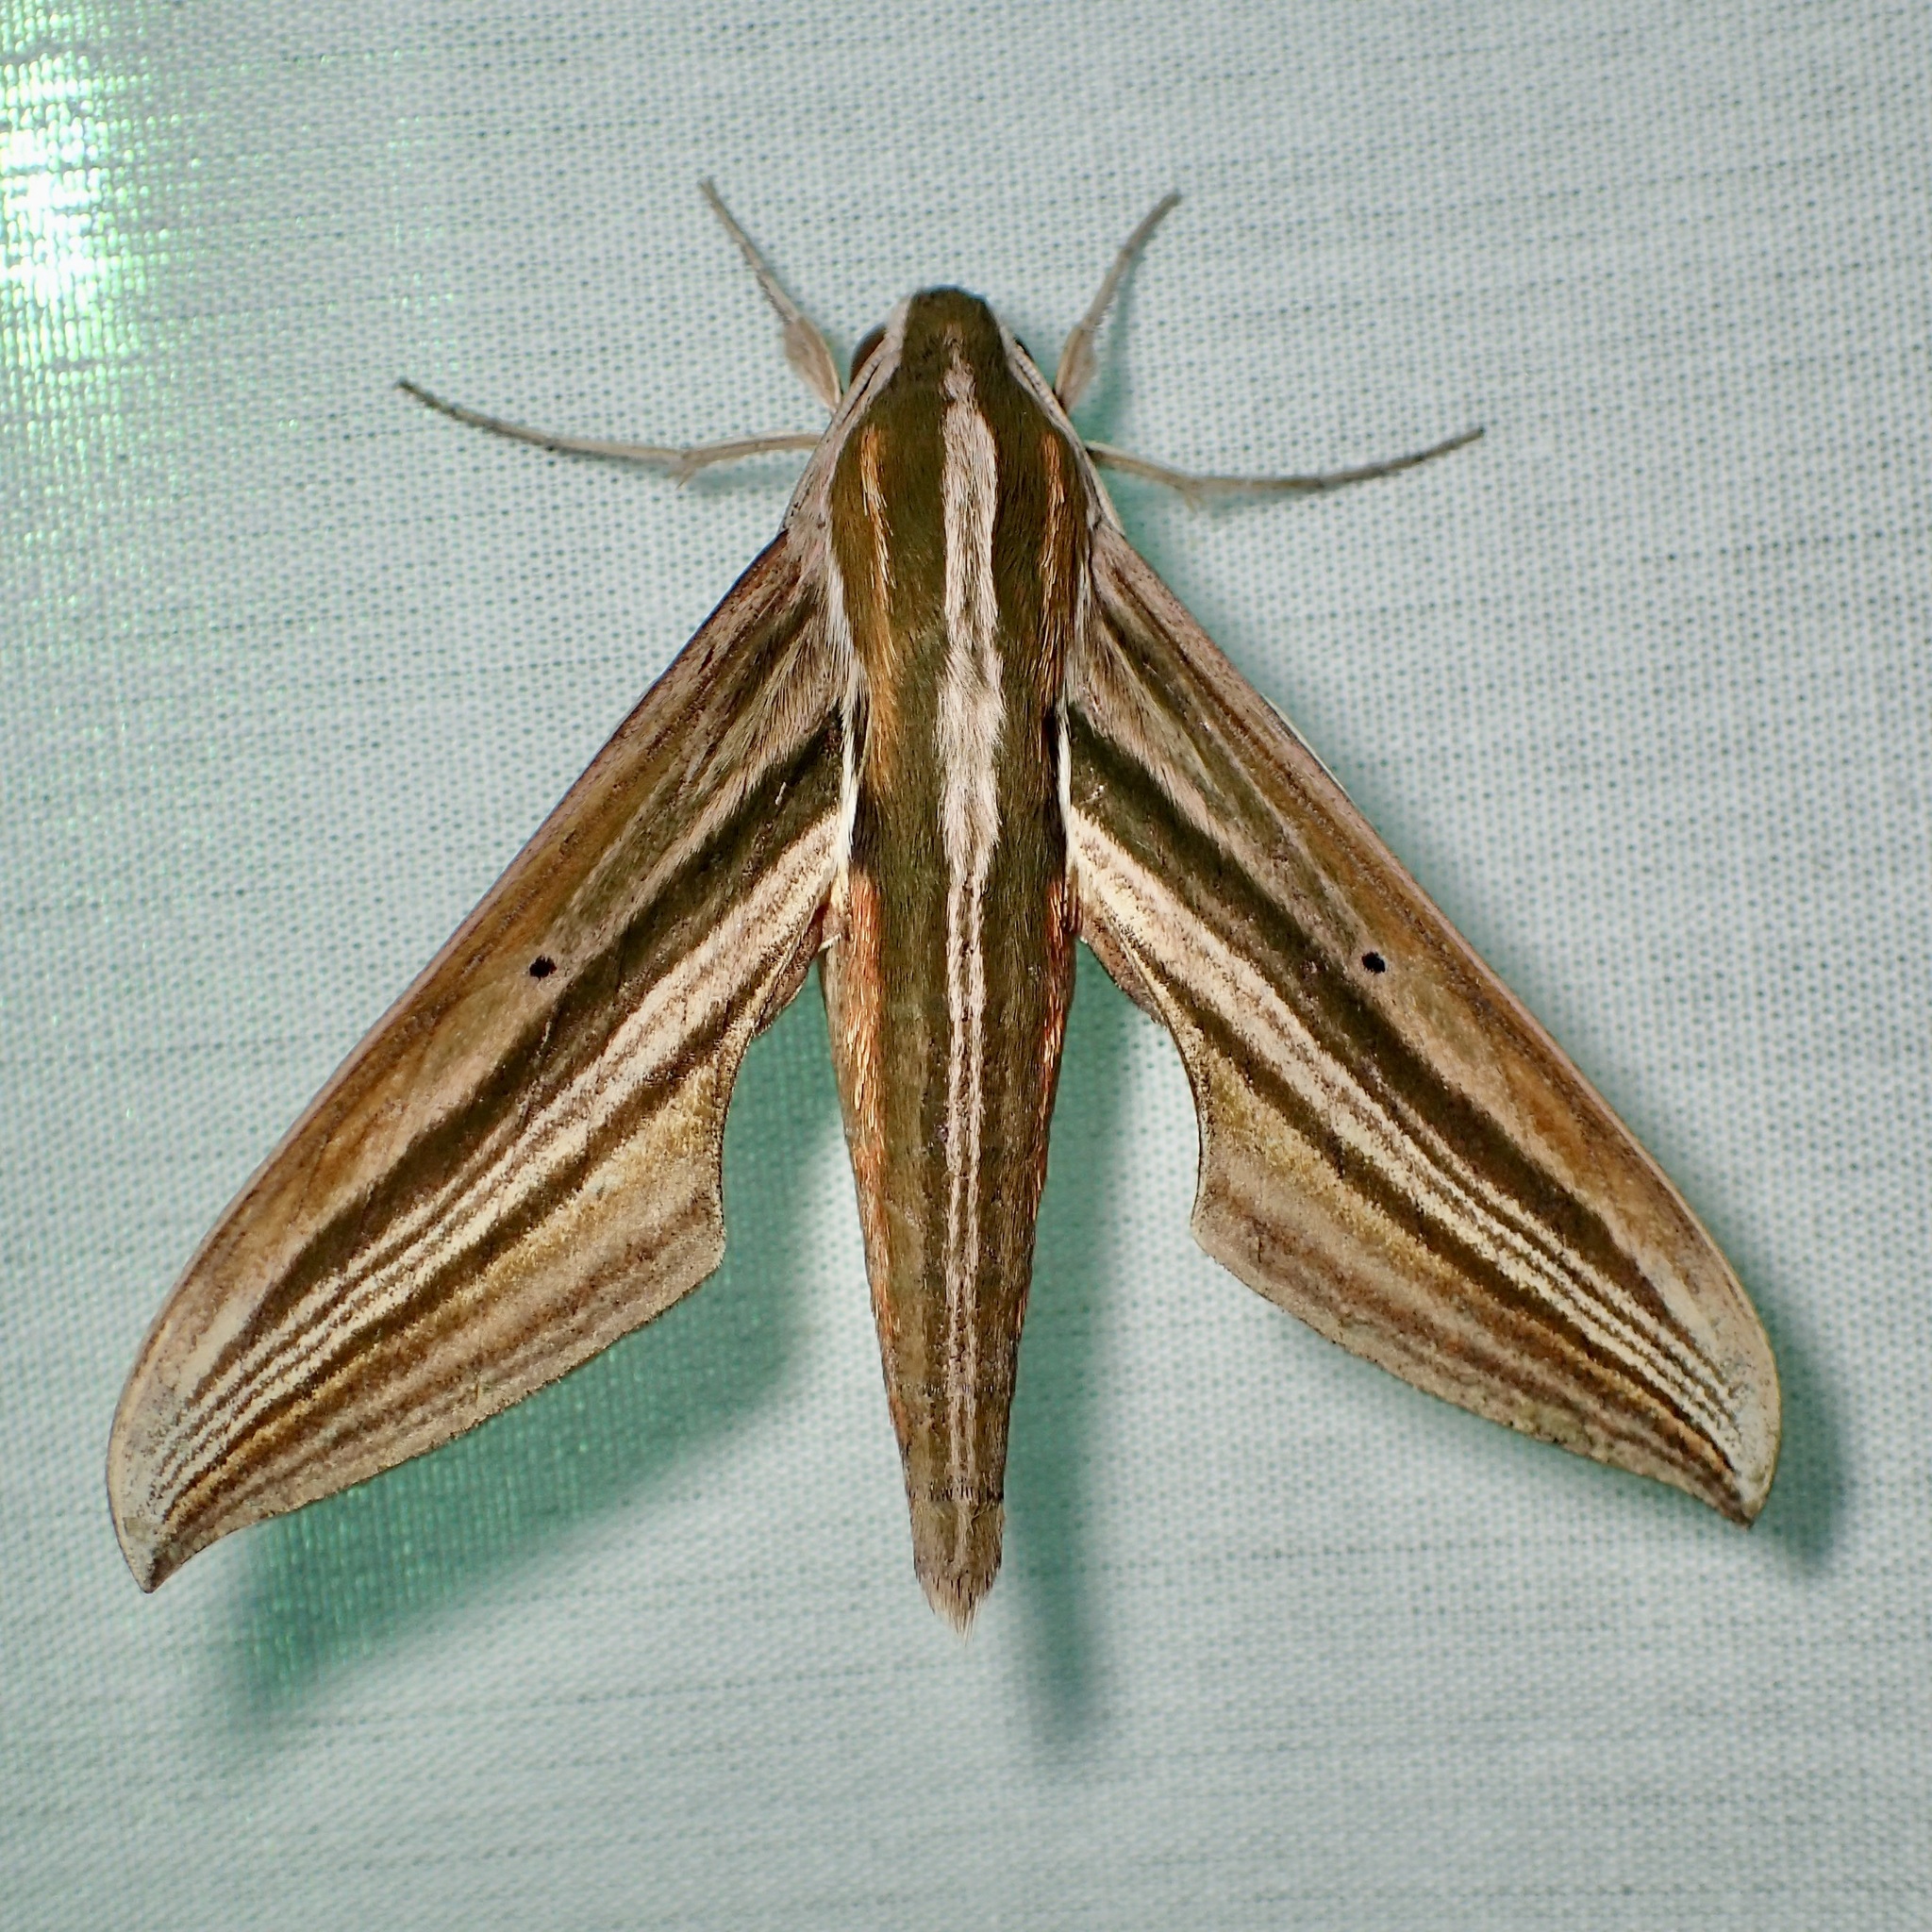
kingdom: Animalia
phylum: Arthropoda
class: Insecta
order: Lepidoptera
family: Sphingidae
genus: Xylophanes
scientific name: Xylophanes eumedon
